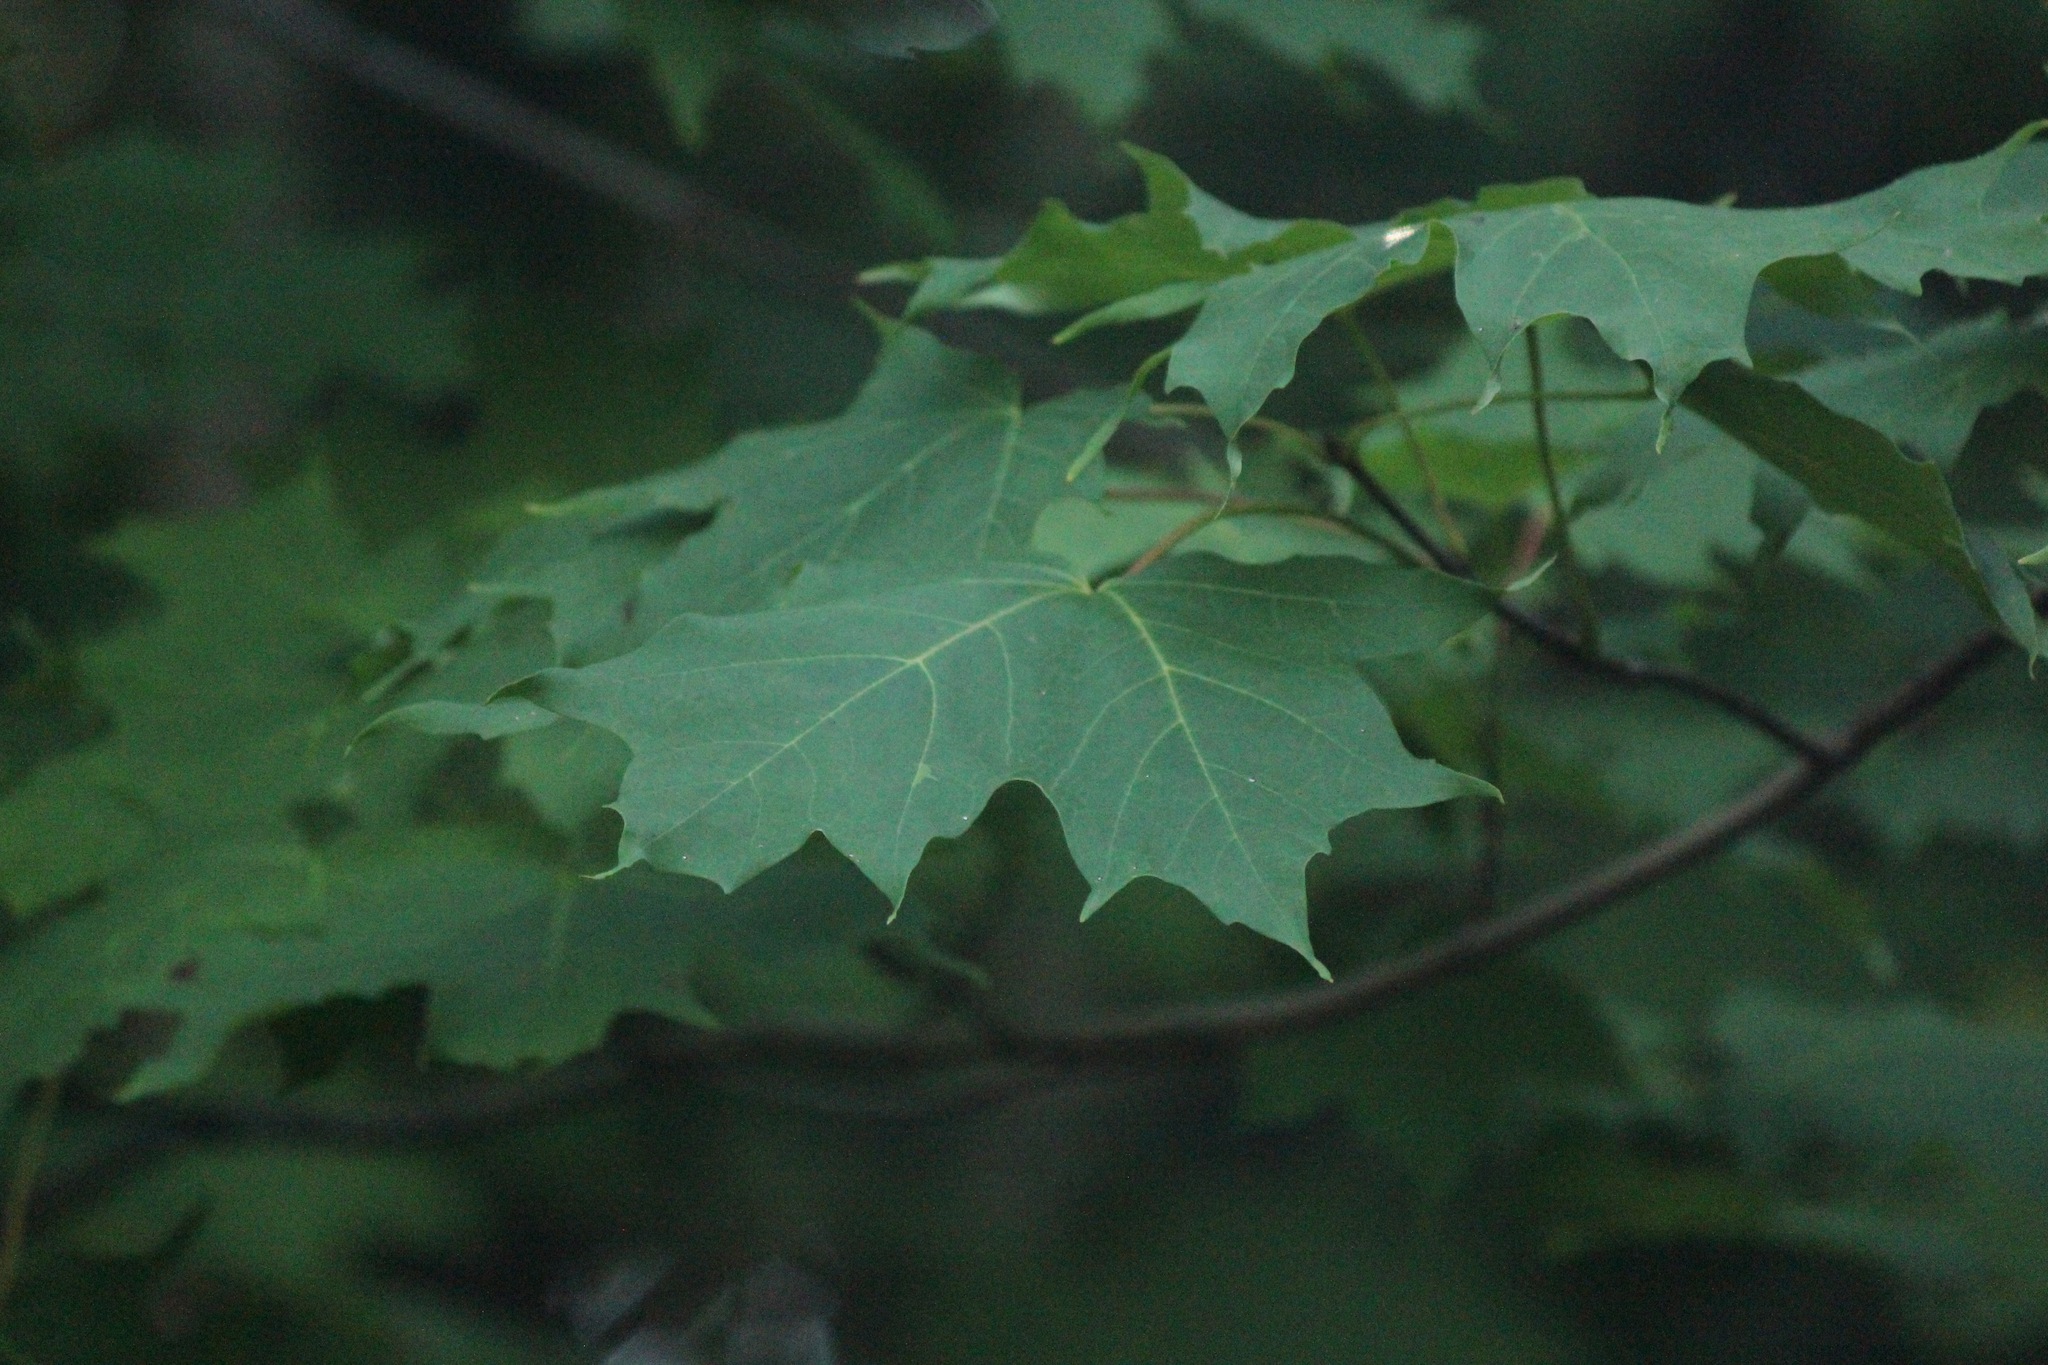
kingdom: Plantae
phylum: Tracheophyta
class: Magnoliopsida
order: Sapindales
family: Sapindaceae
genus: Acer
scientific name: Acer saccharum
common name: Sugar maple
